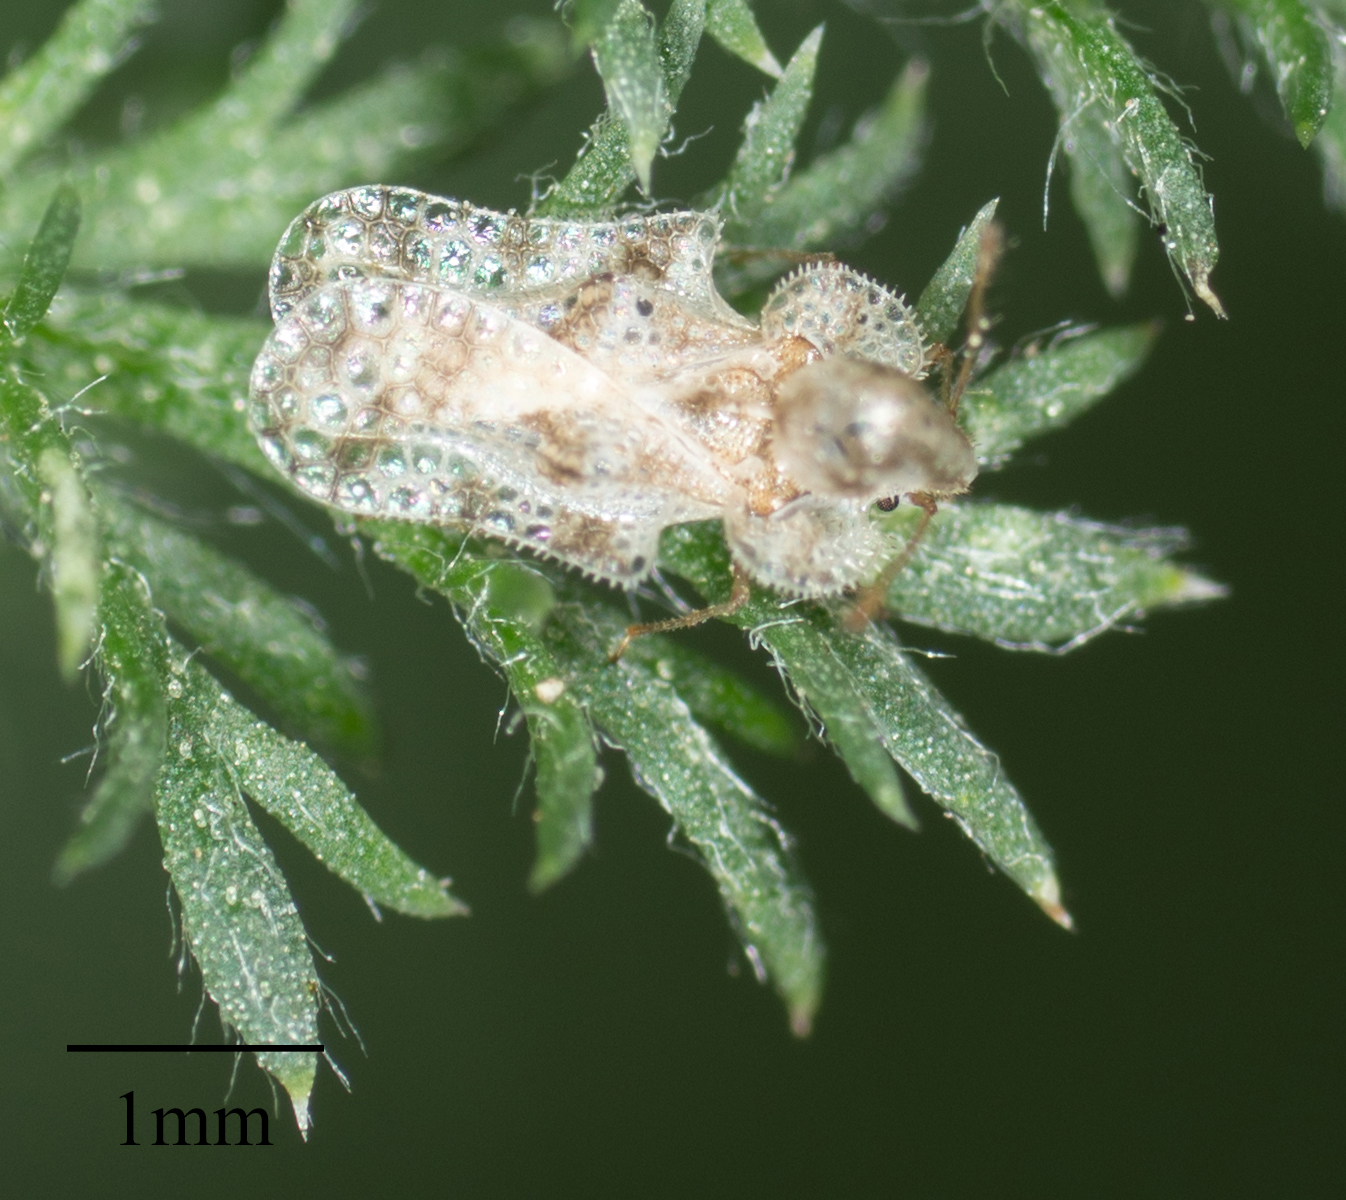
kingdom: Animalia
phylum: Arthropoda
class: Insecta
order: Hemiptera
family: Tingidae
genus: Corythucha
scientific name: Corythucha morrilli
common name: Morrill lace bug
